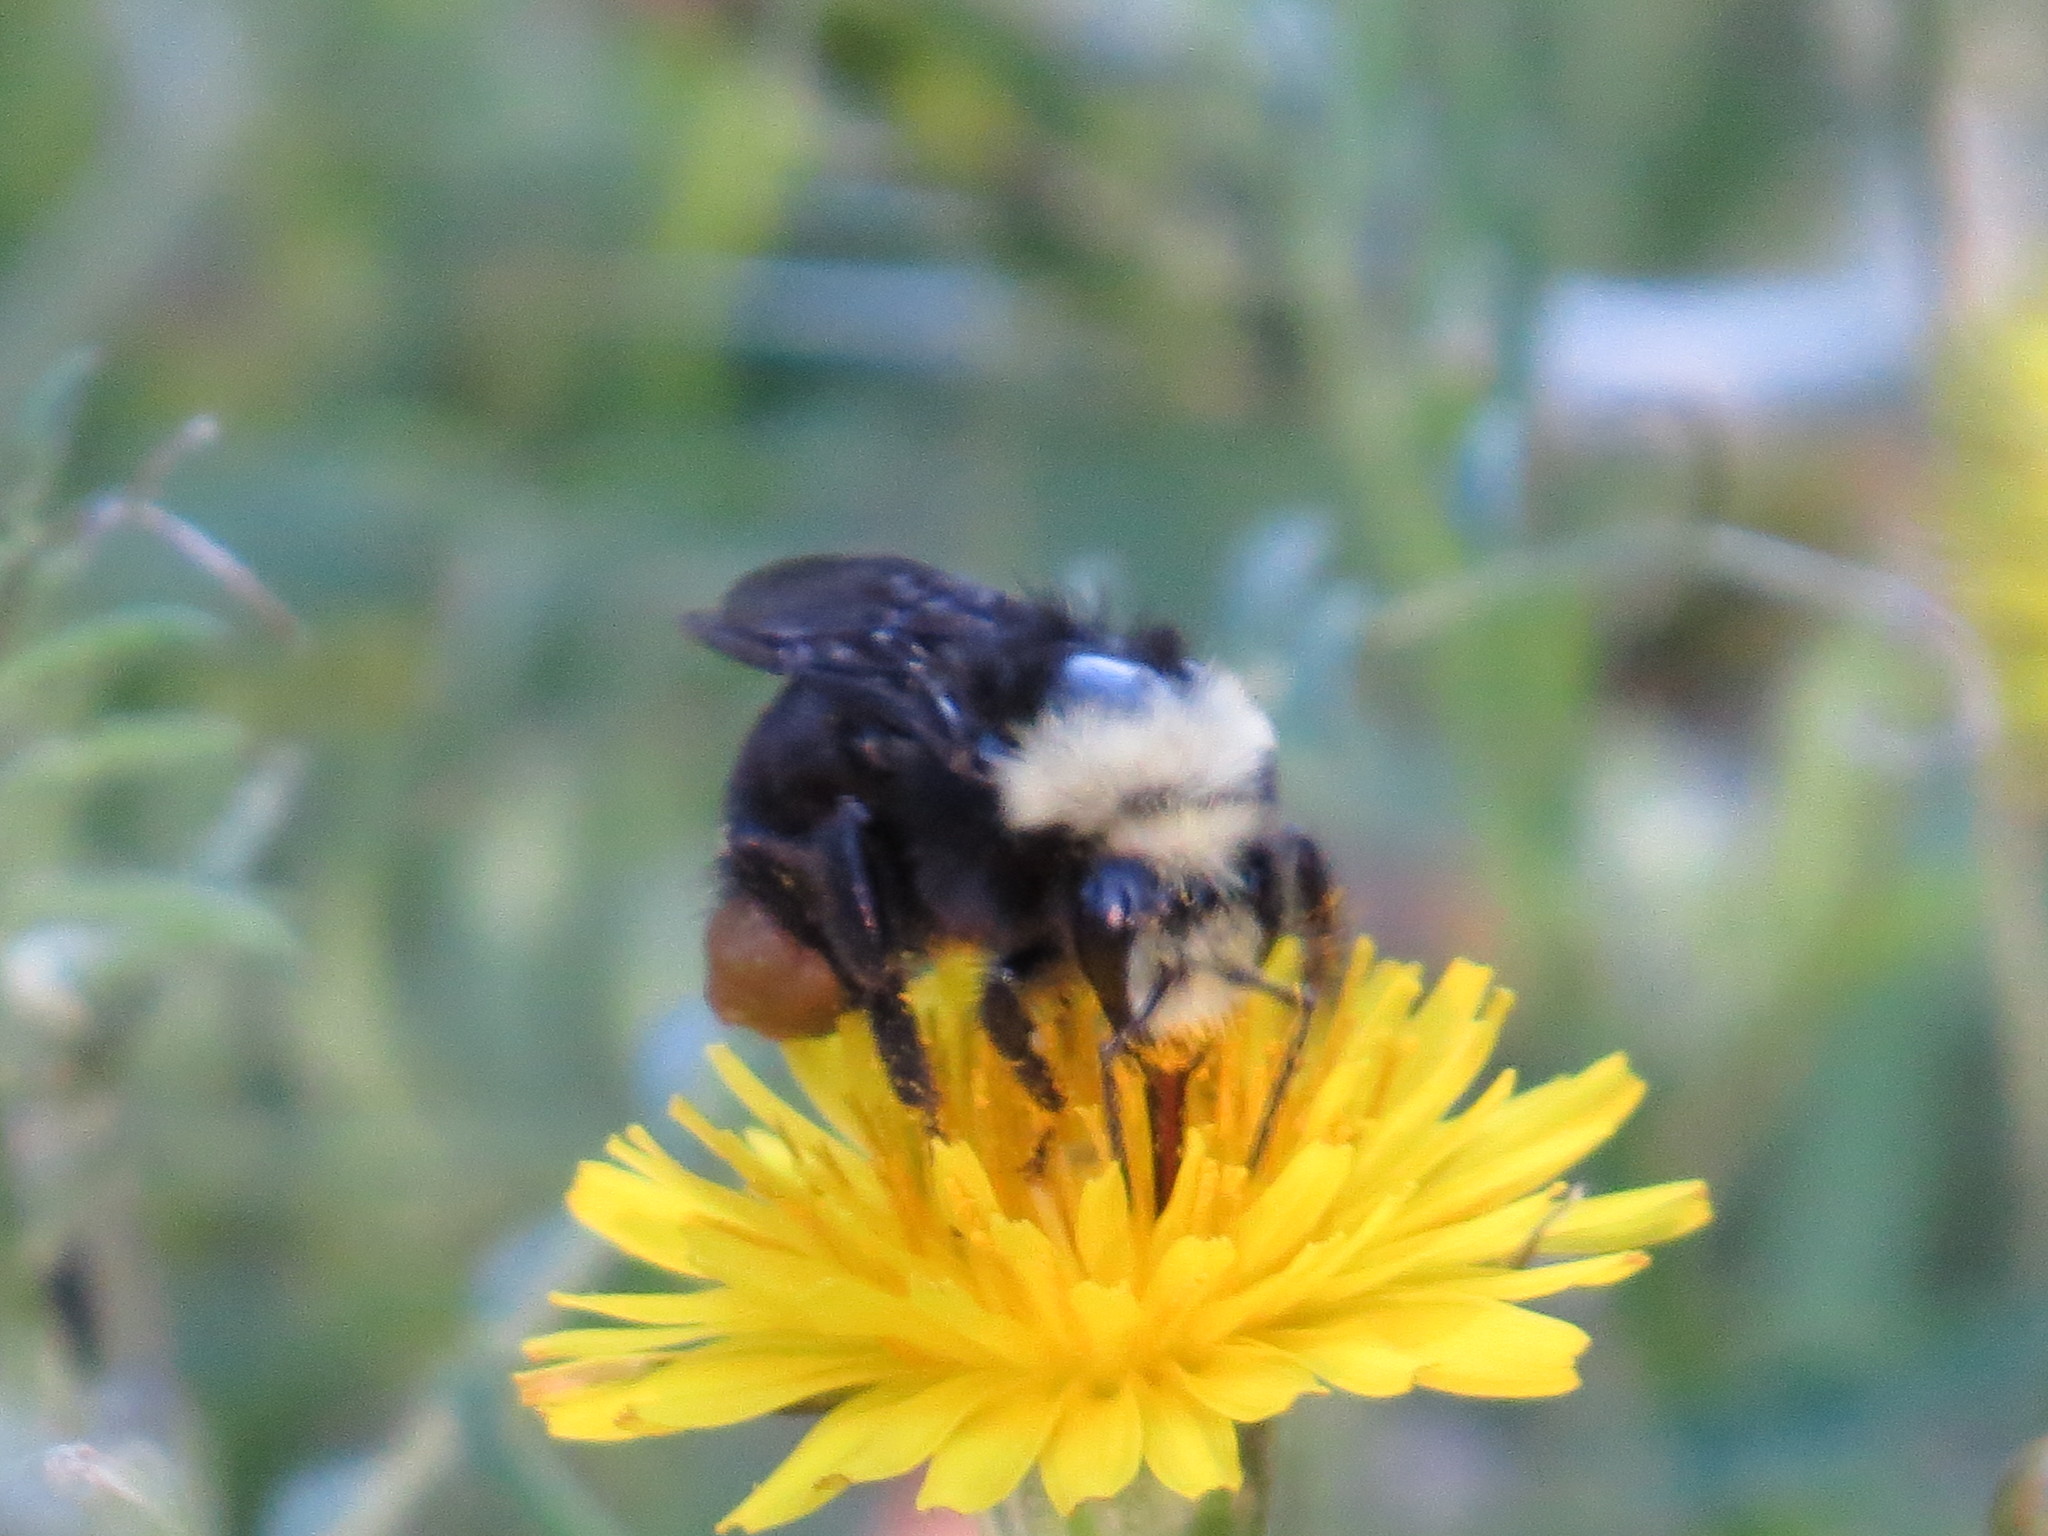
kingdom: Animalia
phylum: Arthropoda
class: Insecta
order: Hymenoptera
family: Apidae
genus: Pyrobombus
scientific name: Pyrobombus
